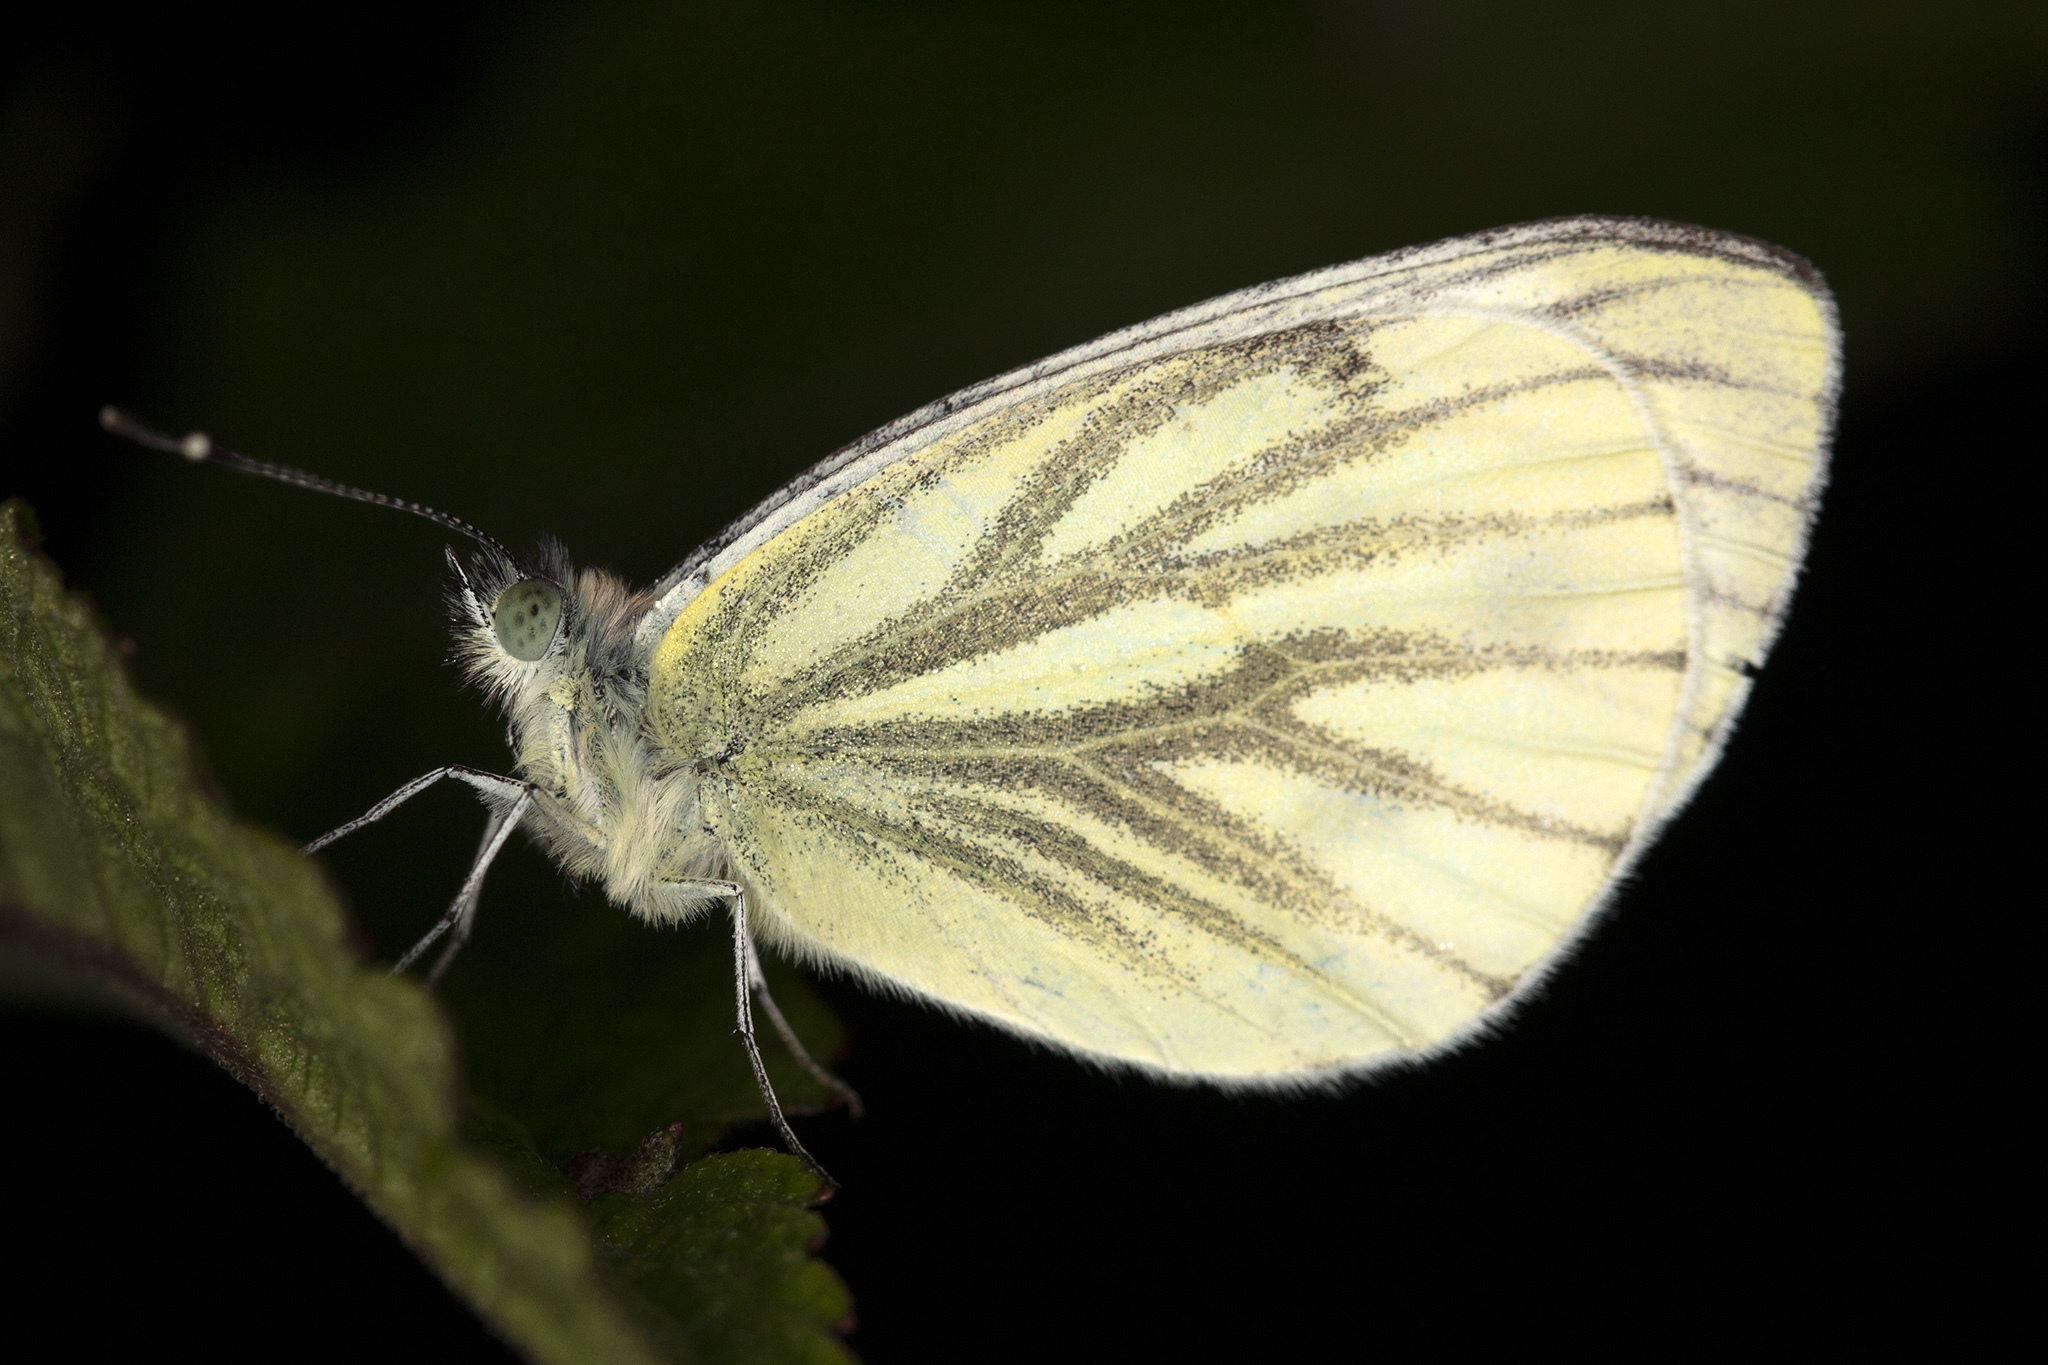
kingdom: Animalia
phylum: Arthropoda
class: Insecta
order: Lepidoptera
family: Pieridae
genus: Pieris
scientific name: Pieris napi
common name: Green-veined white
